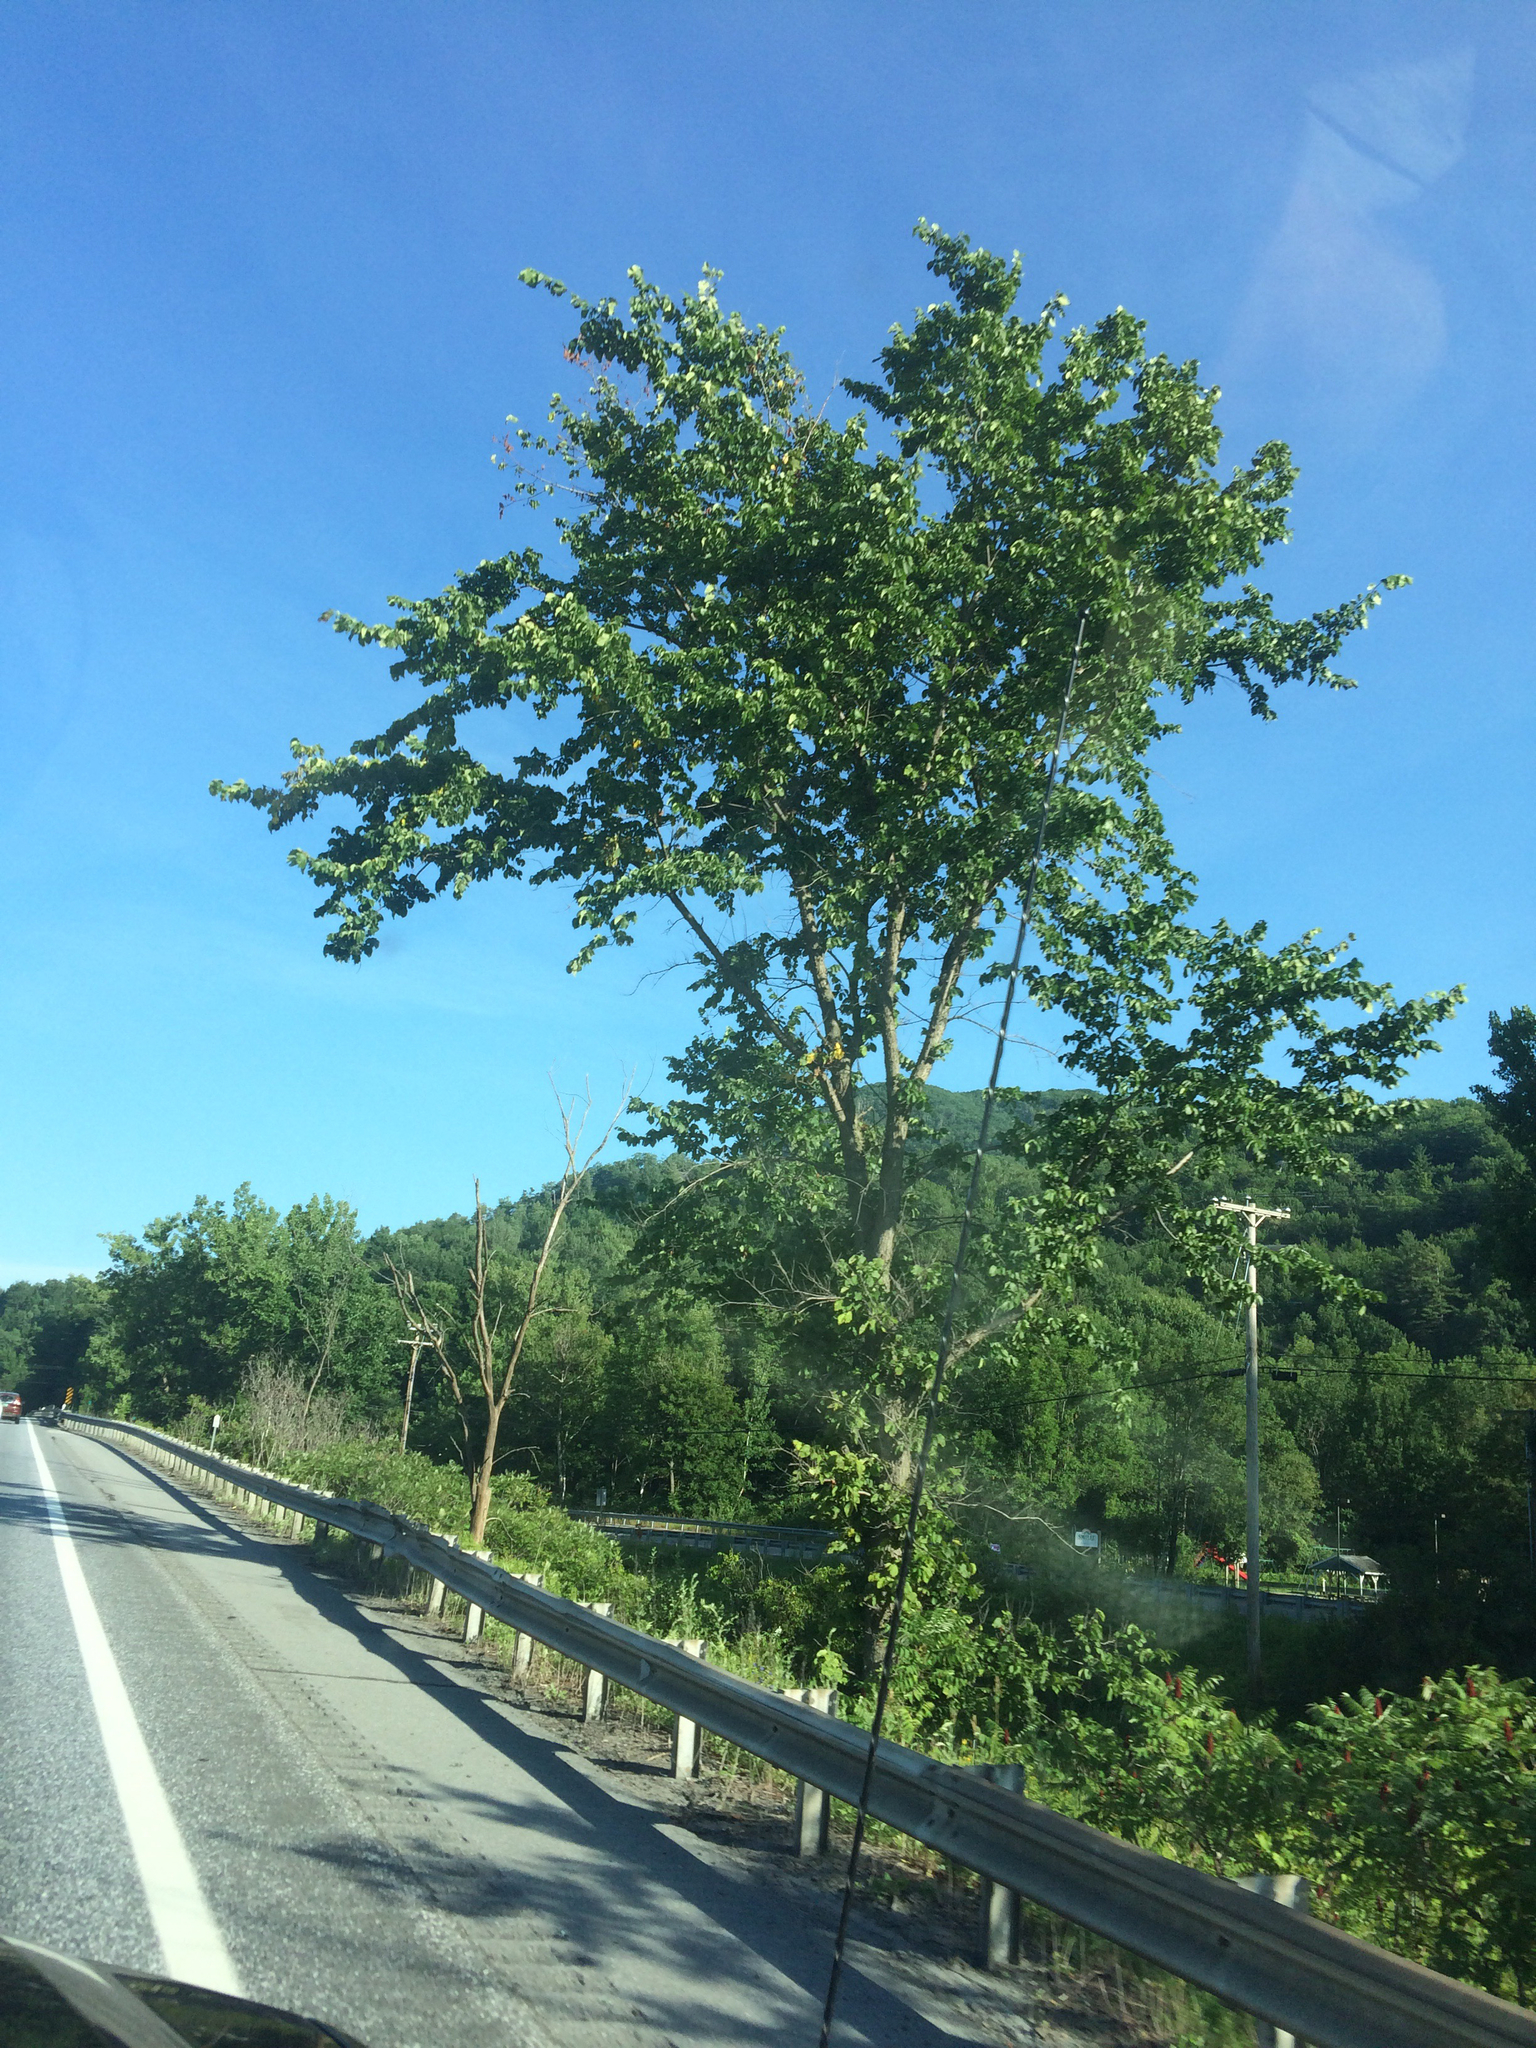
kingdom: Plantae
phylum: Tracheophyta
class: Magnoliopsida
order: Rosales
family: Ulmaceae
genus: Ulmus
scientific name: Ulmus americana
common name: American elm
